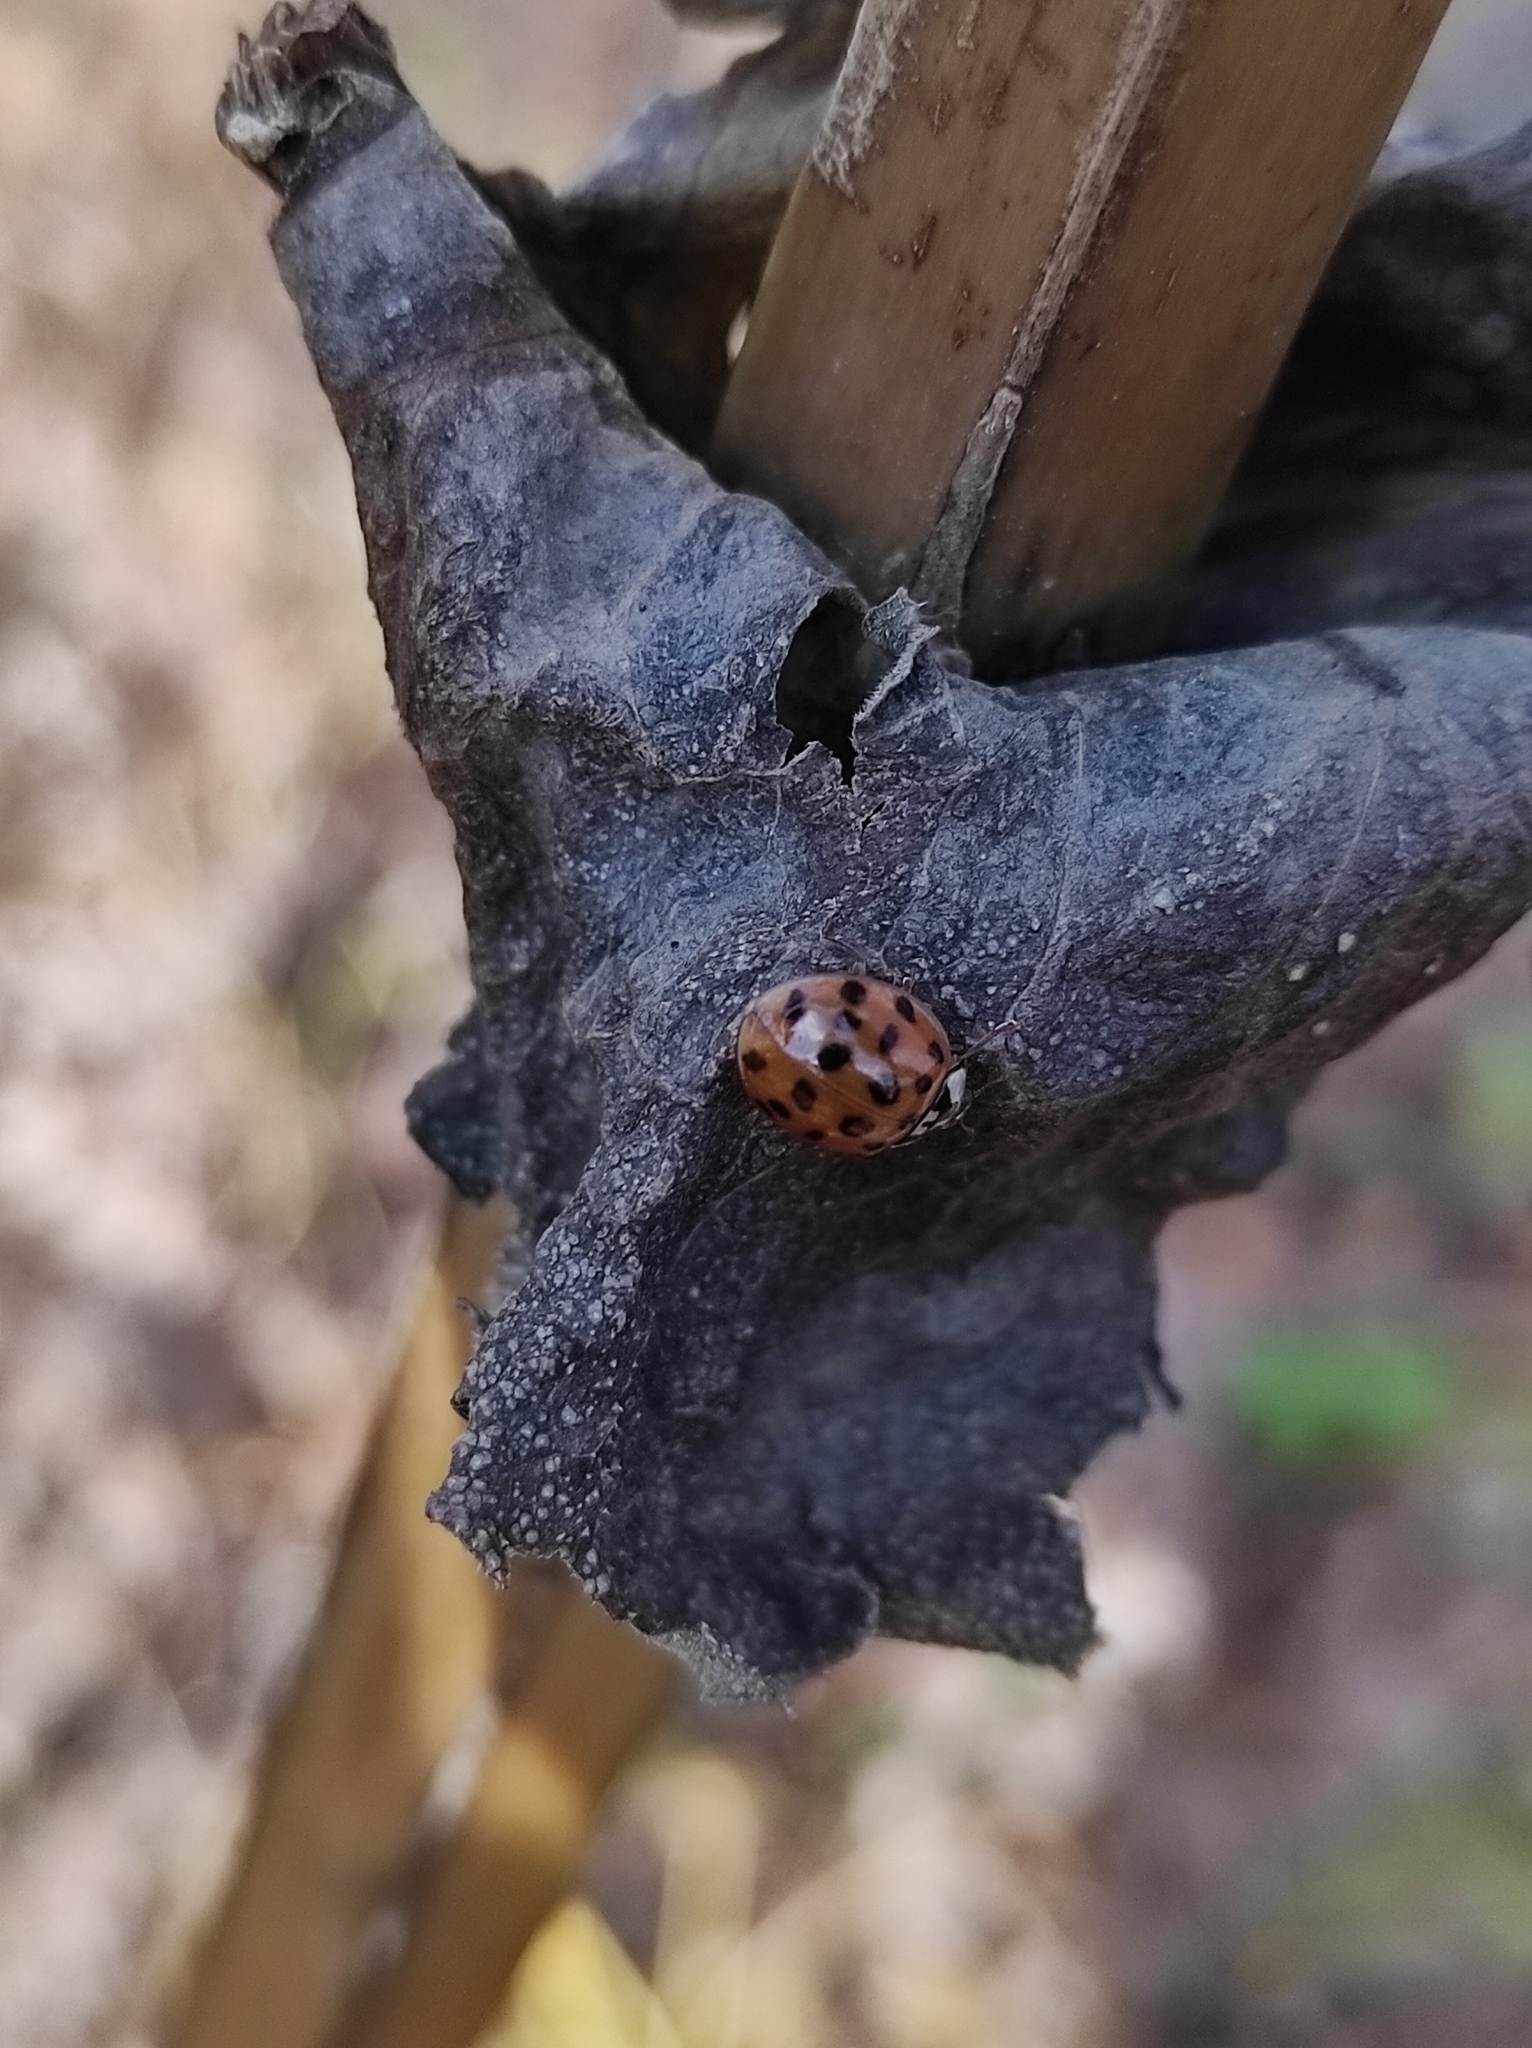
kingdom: Animalia
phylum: Arthropoda
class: Insecta
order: Coleoptera
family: Coccinellidae
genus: Harmonia
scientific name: Harmonia axyridis
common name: Harlequin ladybird
